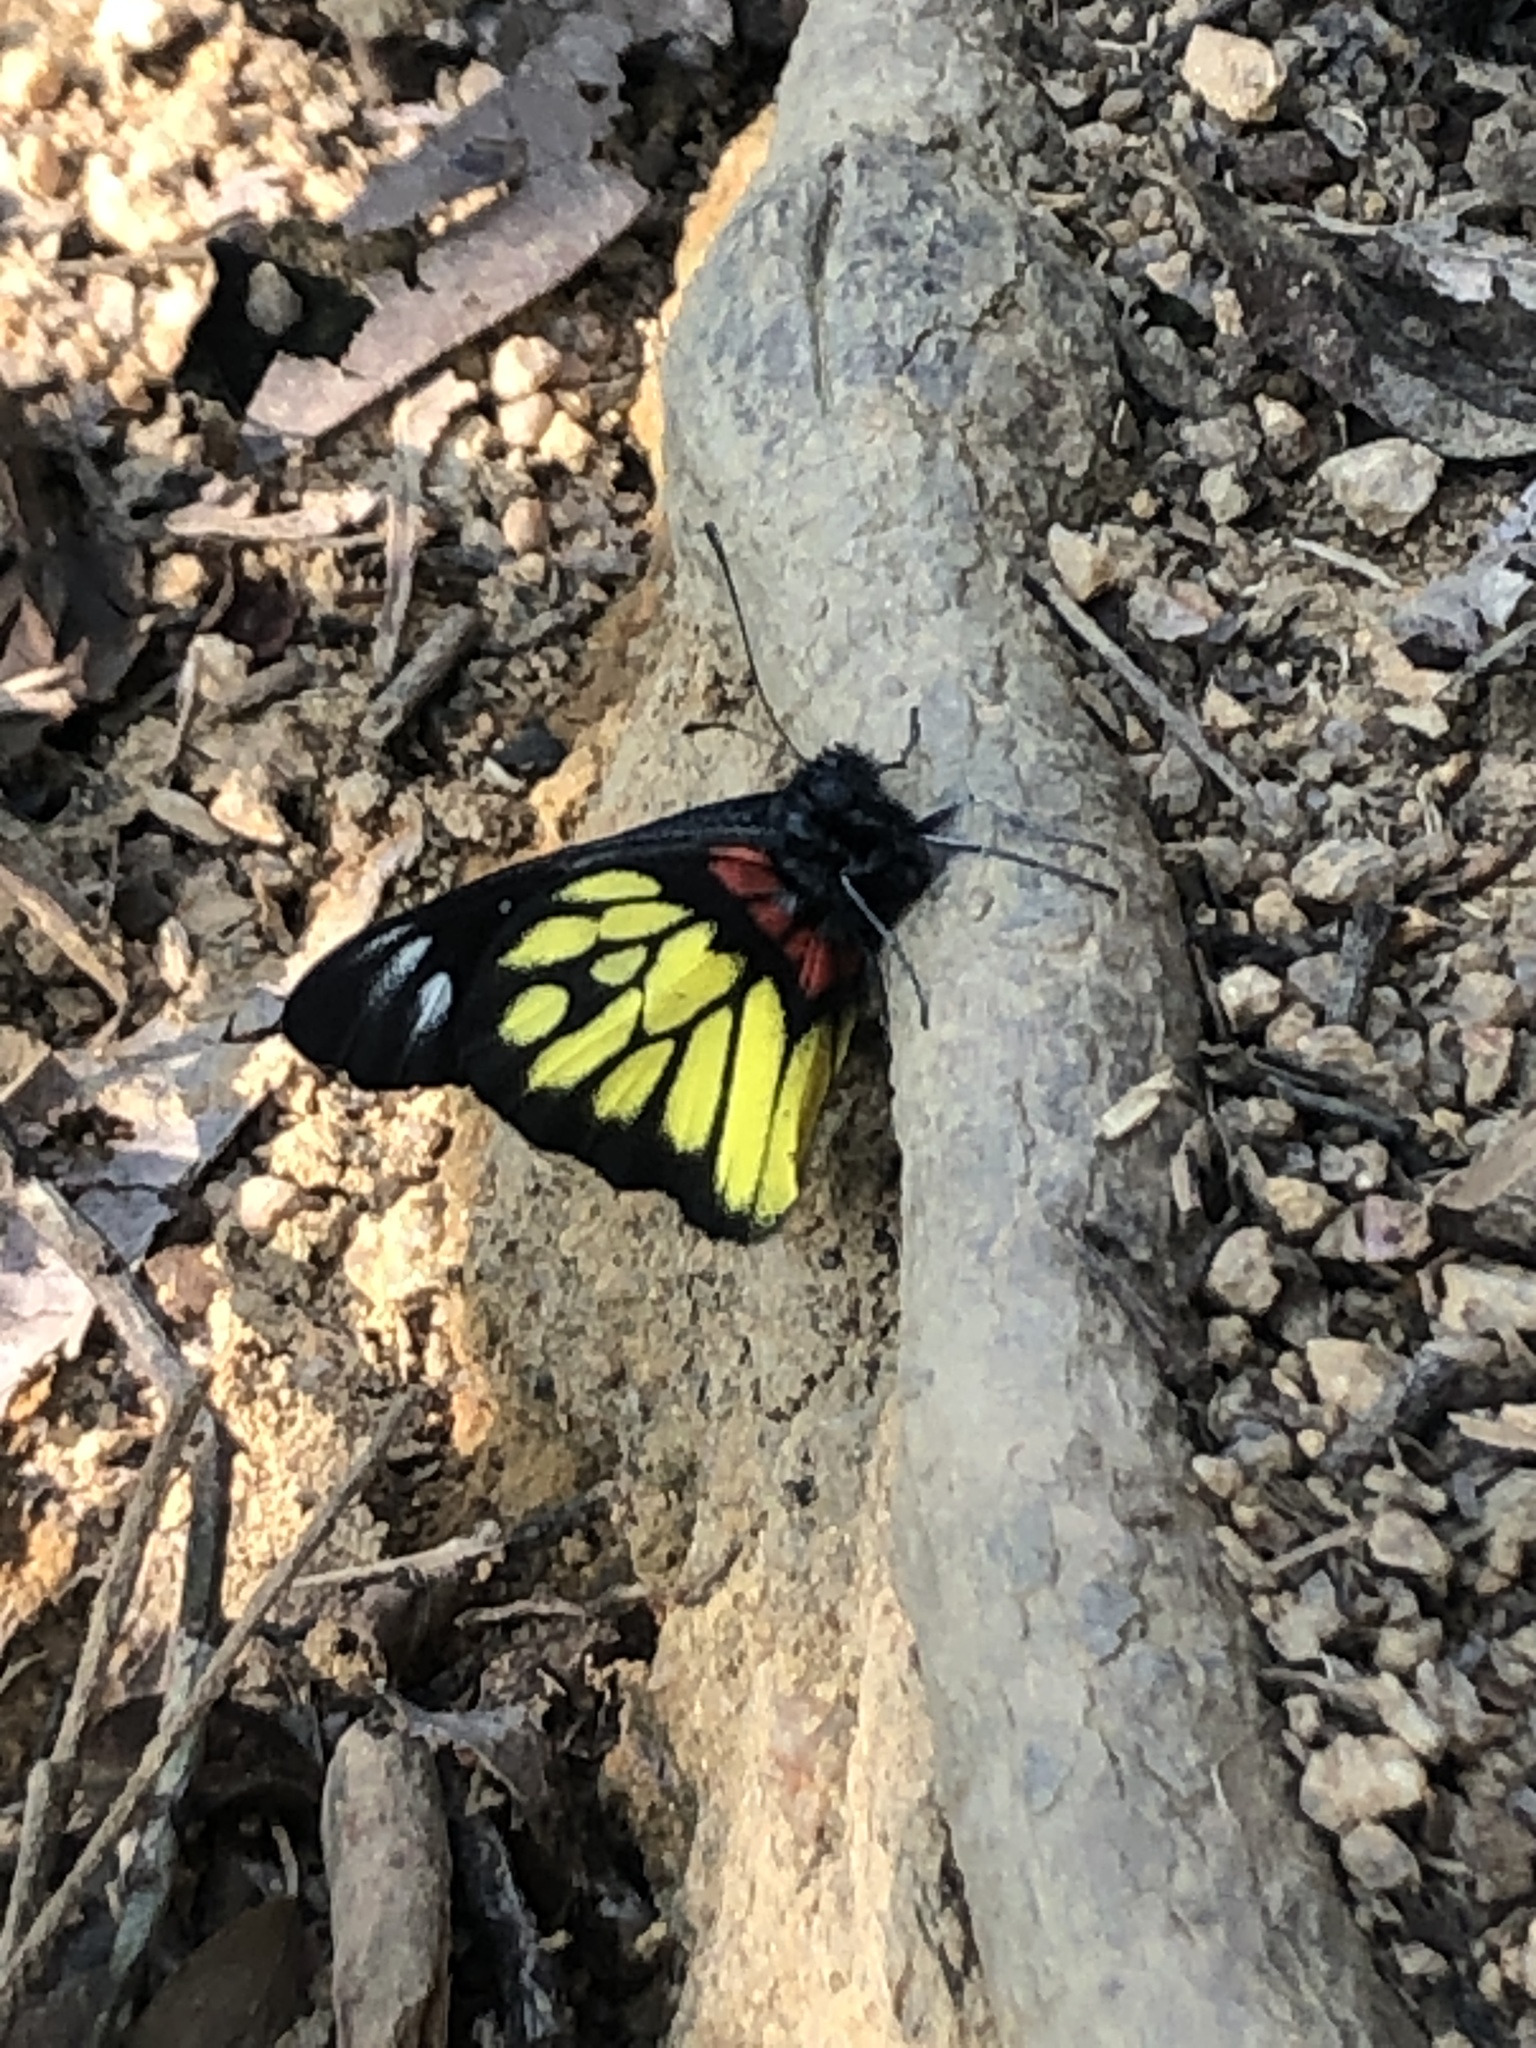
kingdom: Animalia
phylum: Arthropoda
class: Insecta
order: Lepidoptera
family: Pieridae
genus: Delias
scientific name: Delias pasithoe
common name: Red-base jezebel
